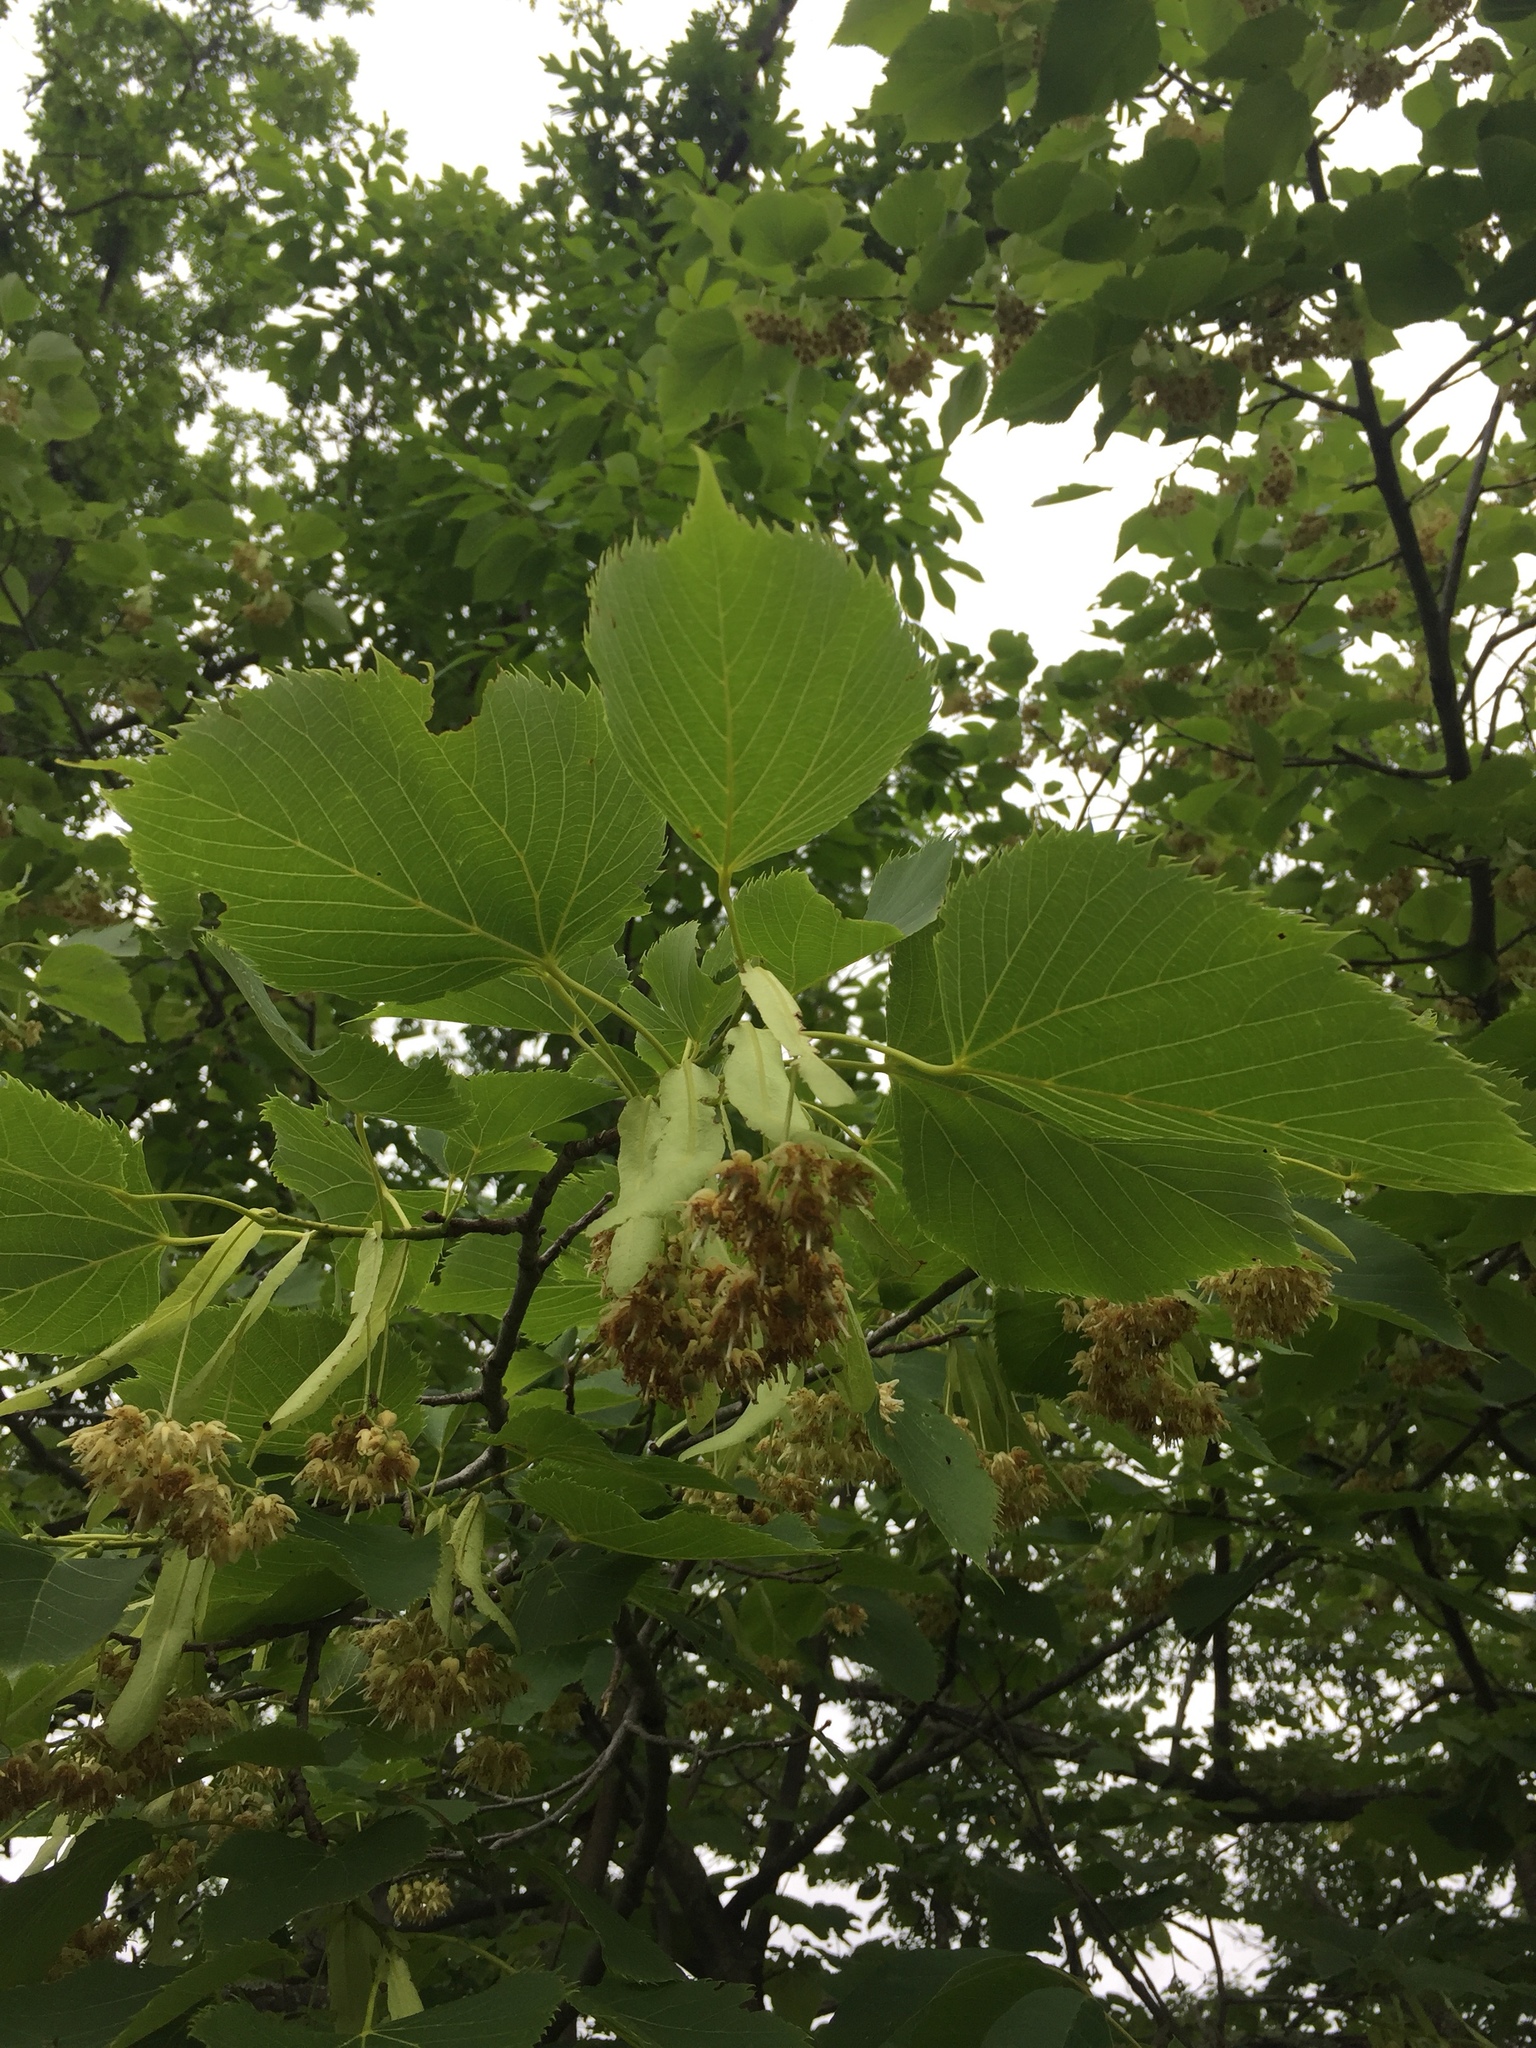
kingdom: Plantae
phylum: Tracheophyta
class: Magnoliopsida
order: Malvales
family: Malvaceae
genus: Tilia
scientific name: Tilia americana
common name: Basswood
